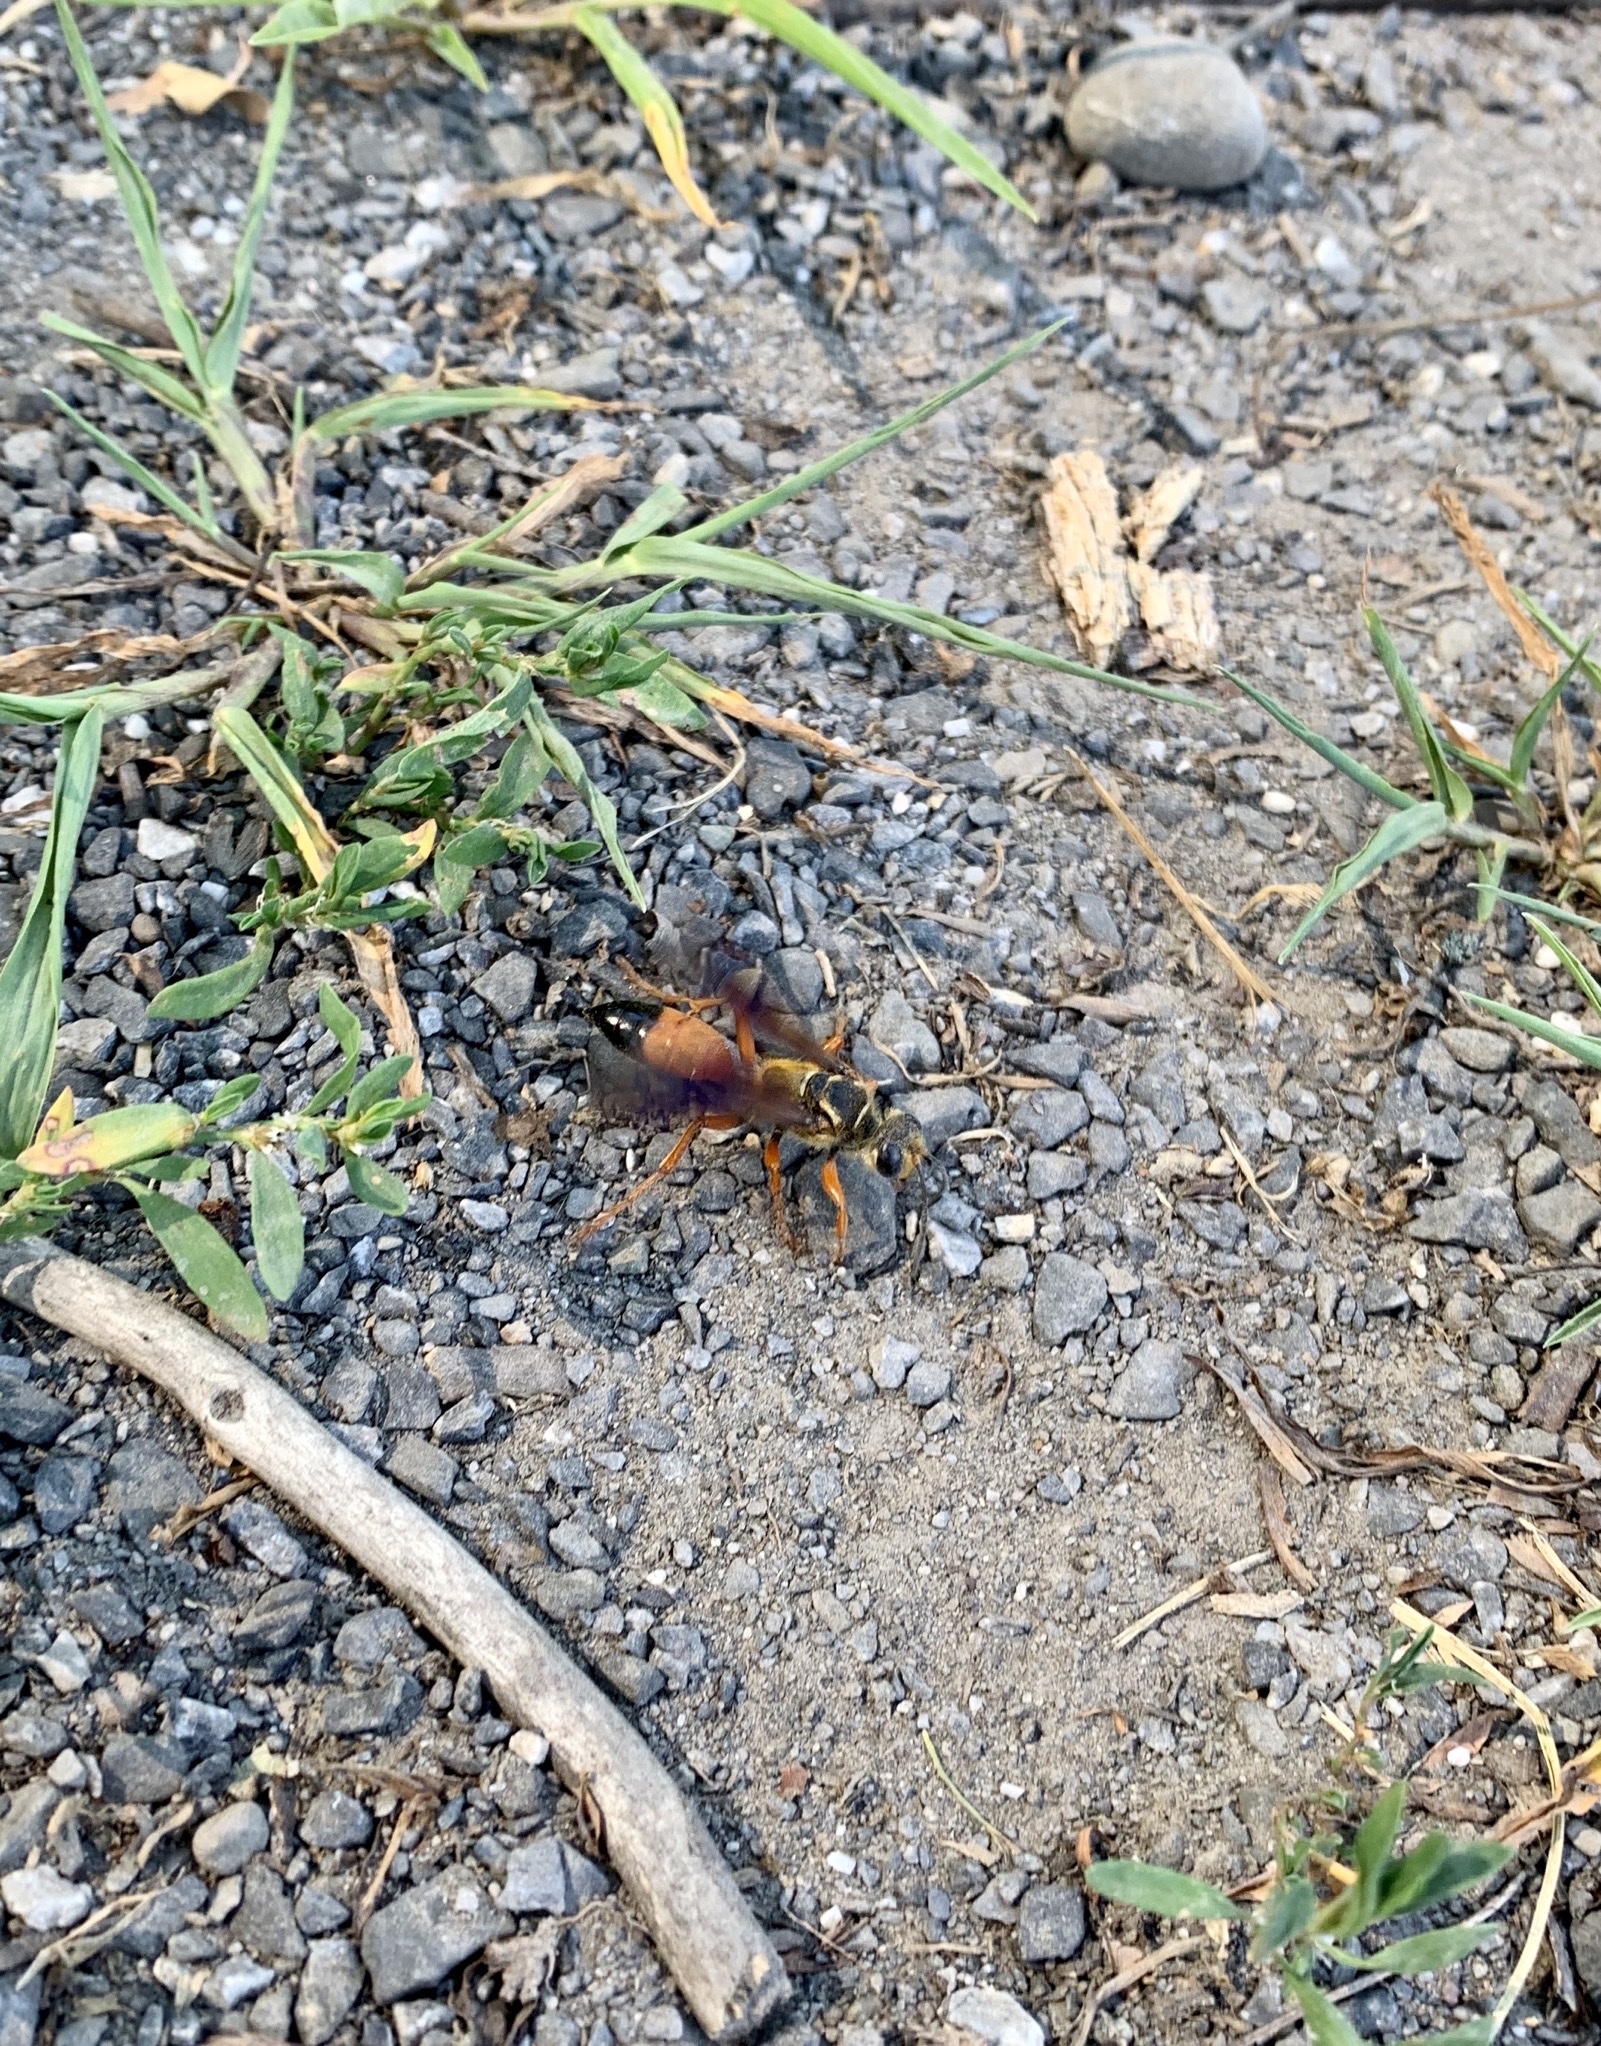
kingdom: Animalia
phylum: Arthropoda
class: Insecta
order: Hymenoptera
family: Sphecidae
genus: Sphex
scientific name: Sphex ichneumoneus
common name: Great golden digger wasp
